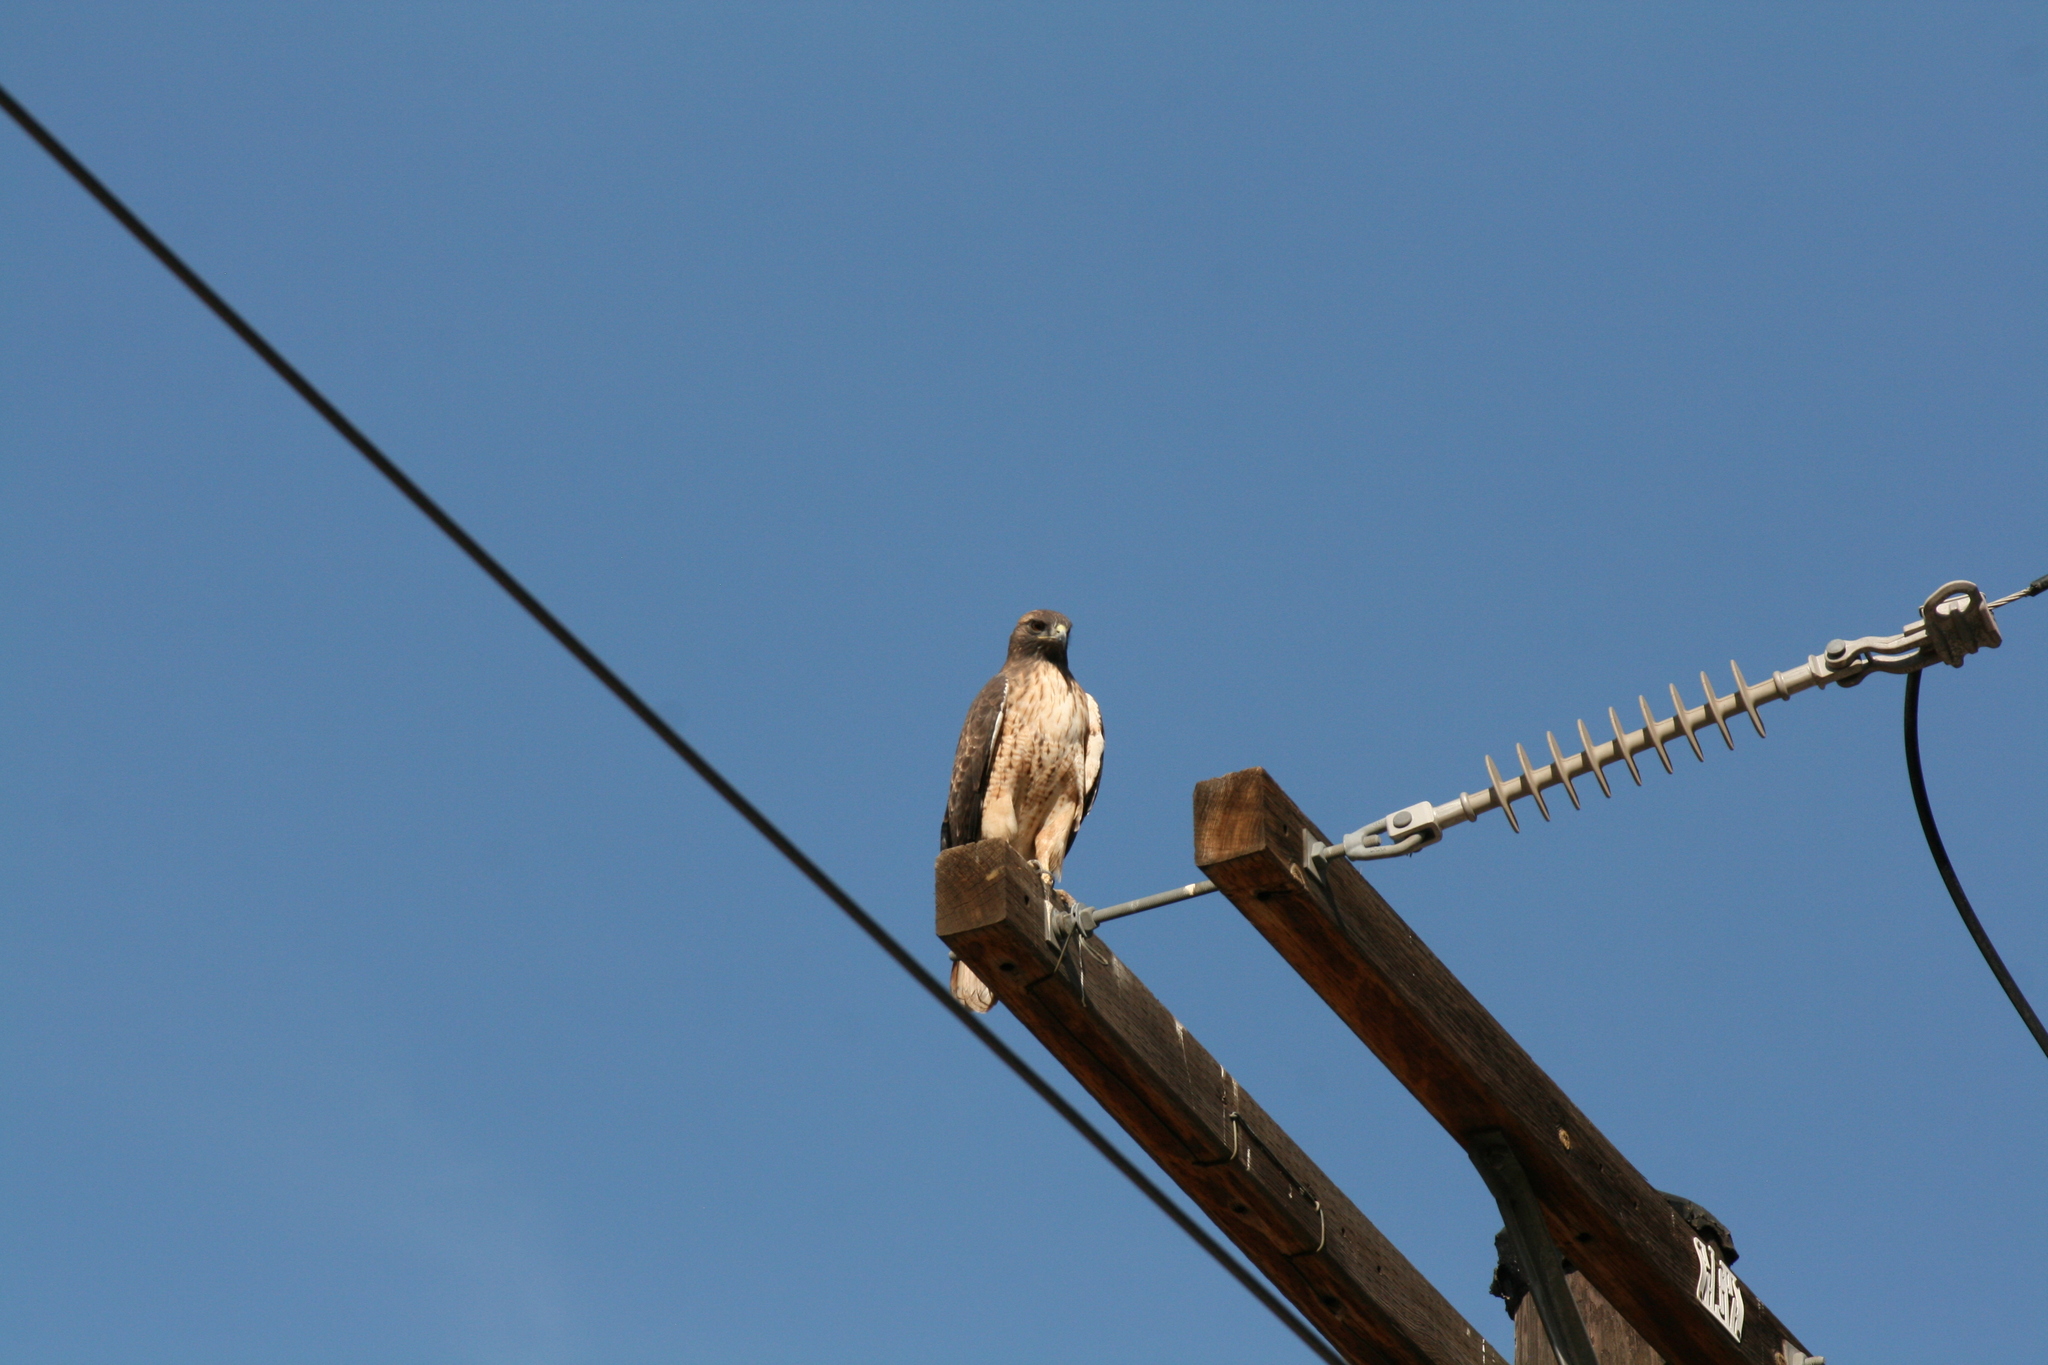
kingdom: Animalia
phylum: Chordata
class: Aves
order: Accipitriformes
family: Accipitridae
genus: Buteo
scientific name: Buteo jamaicensis
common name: Red-tailed hawk
